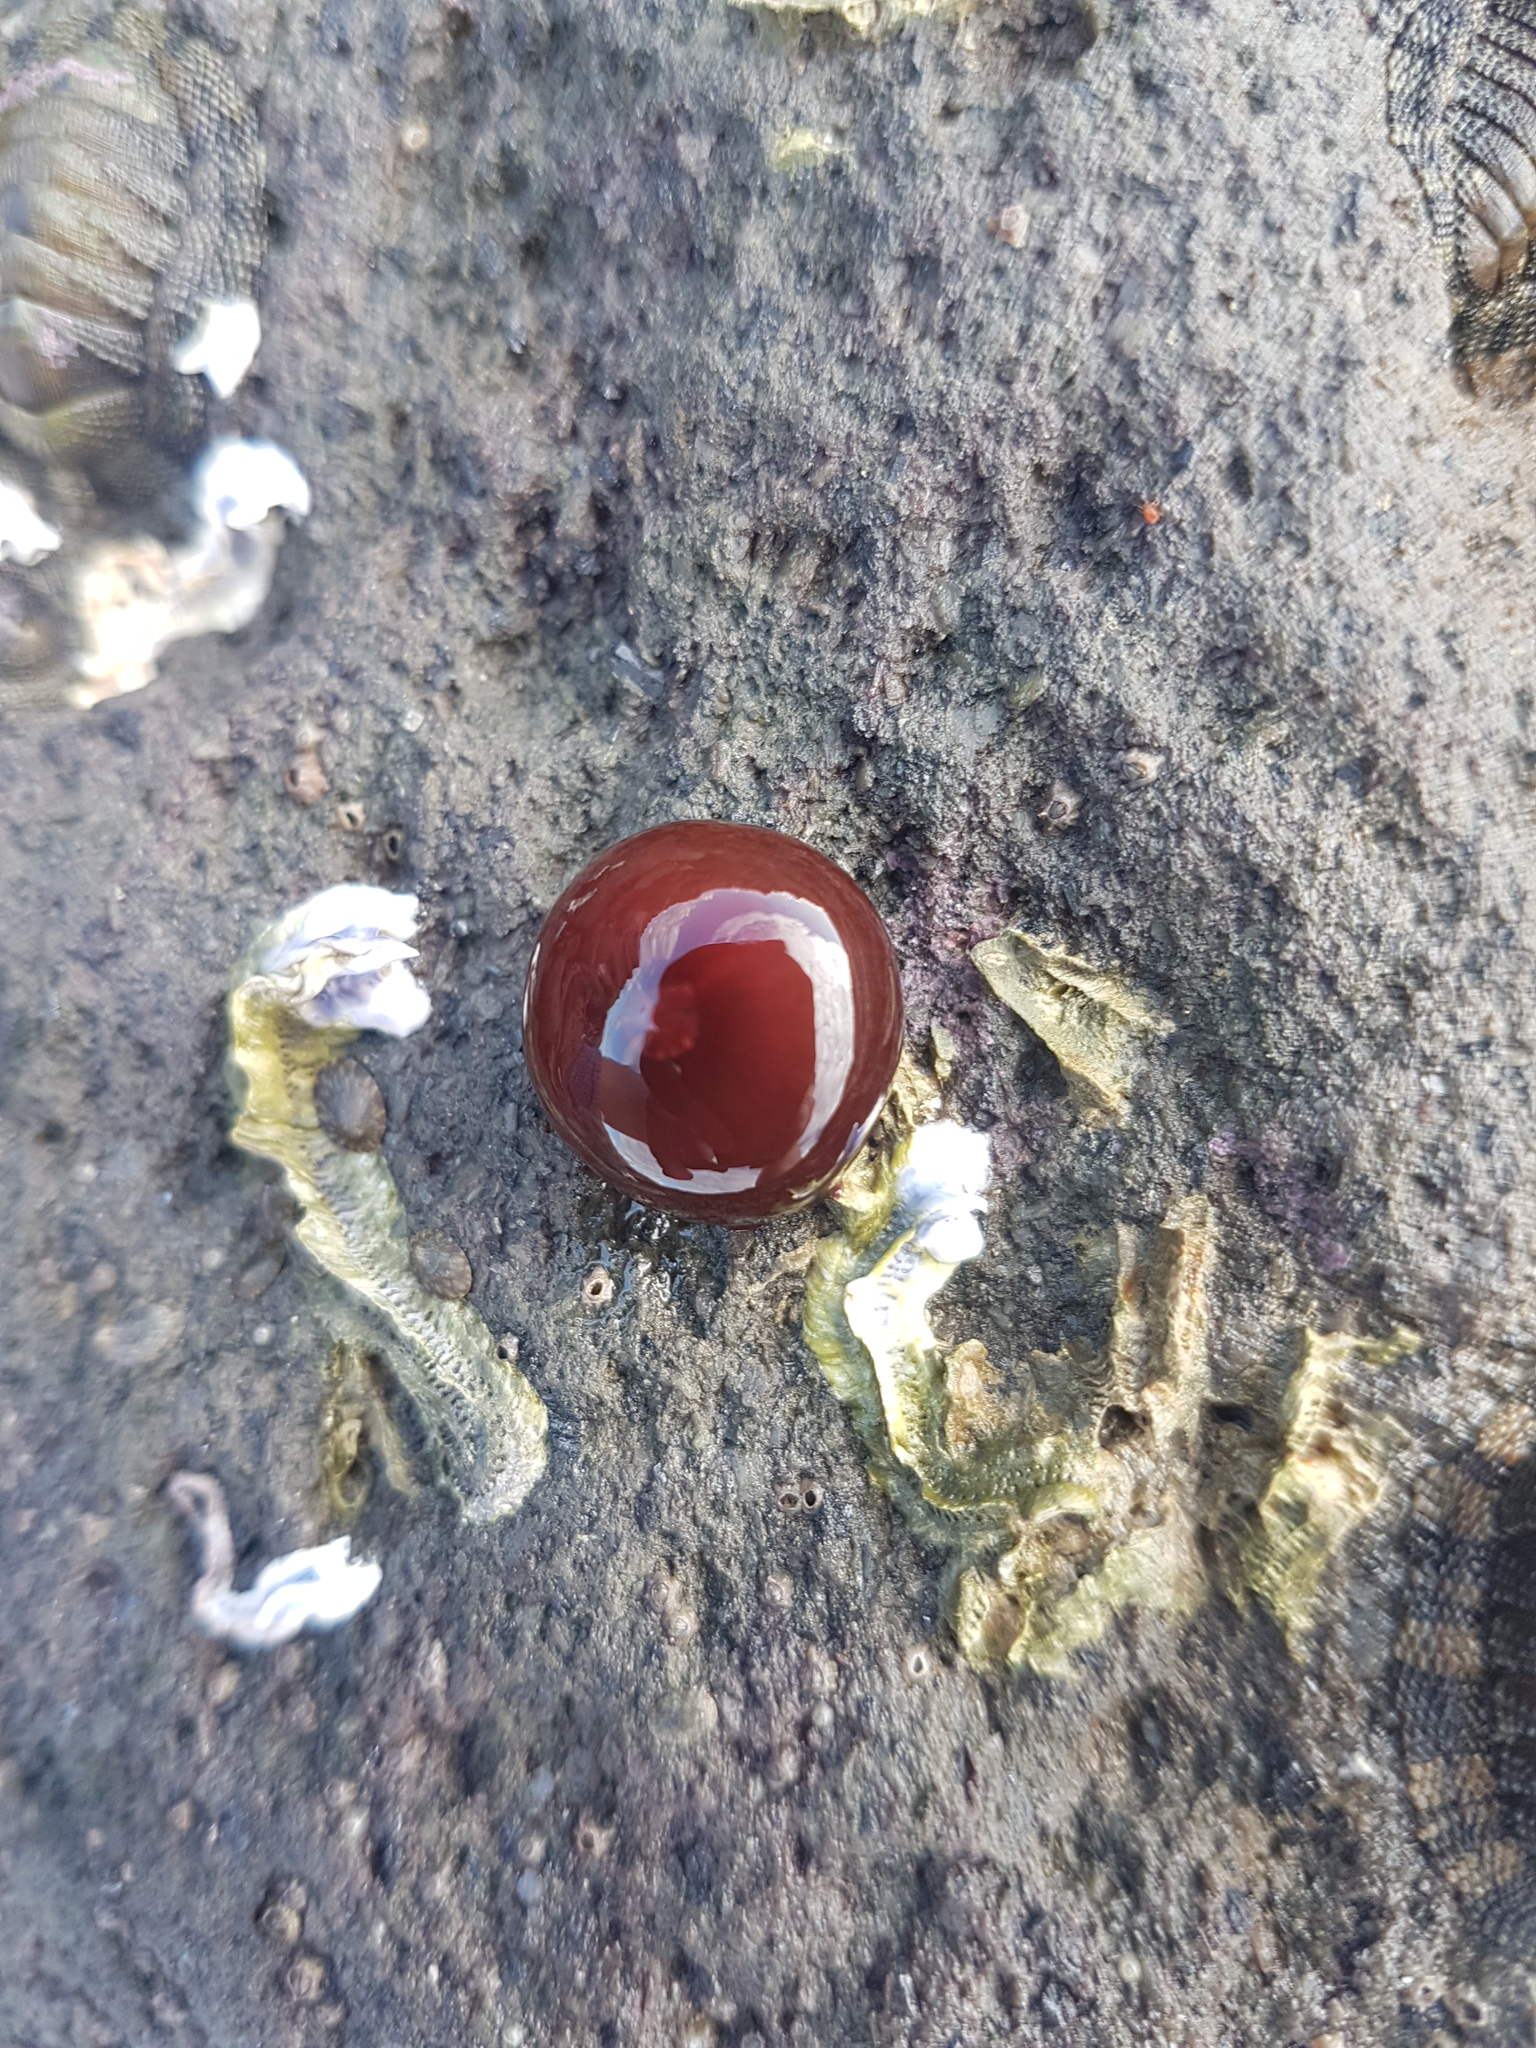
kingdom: Animalia
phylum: Cnidaria
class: Anthozoa
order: Actiniaria
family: Actiniidae
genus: Actinia
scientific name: Actinia tenebrosa
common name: Waratah anemone
